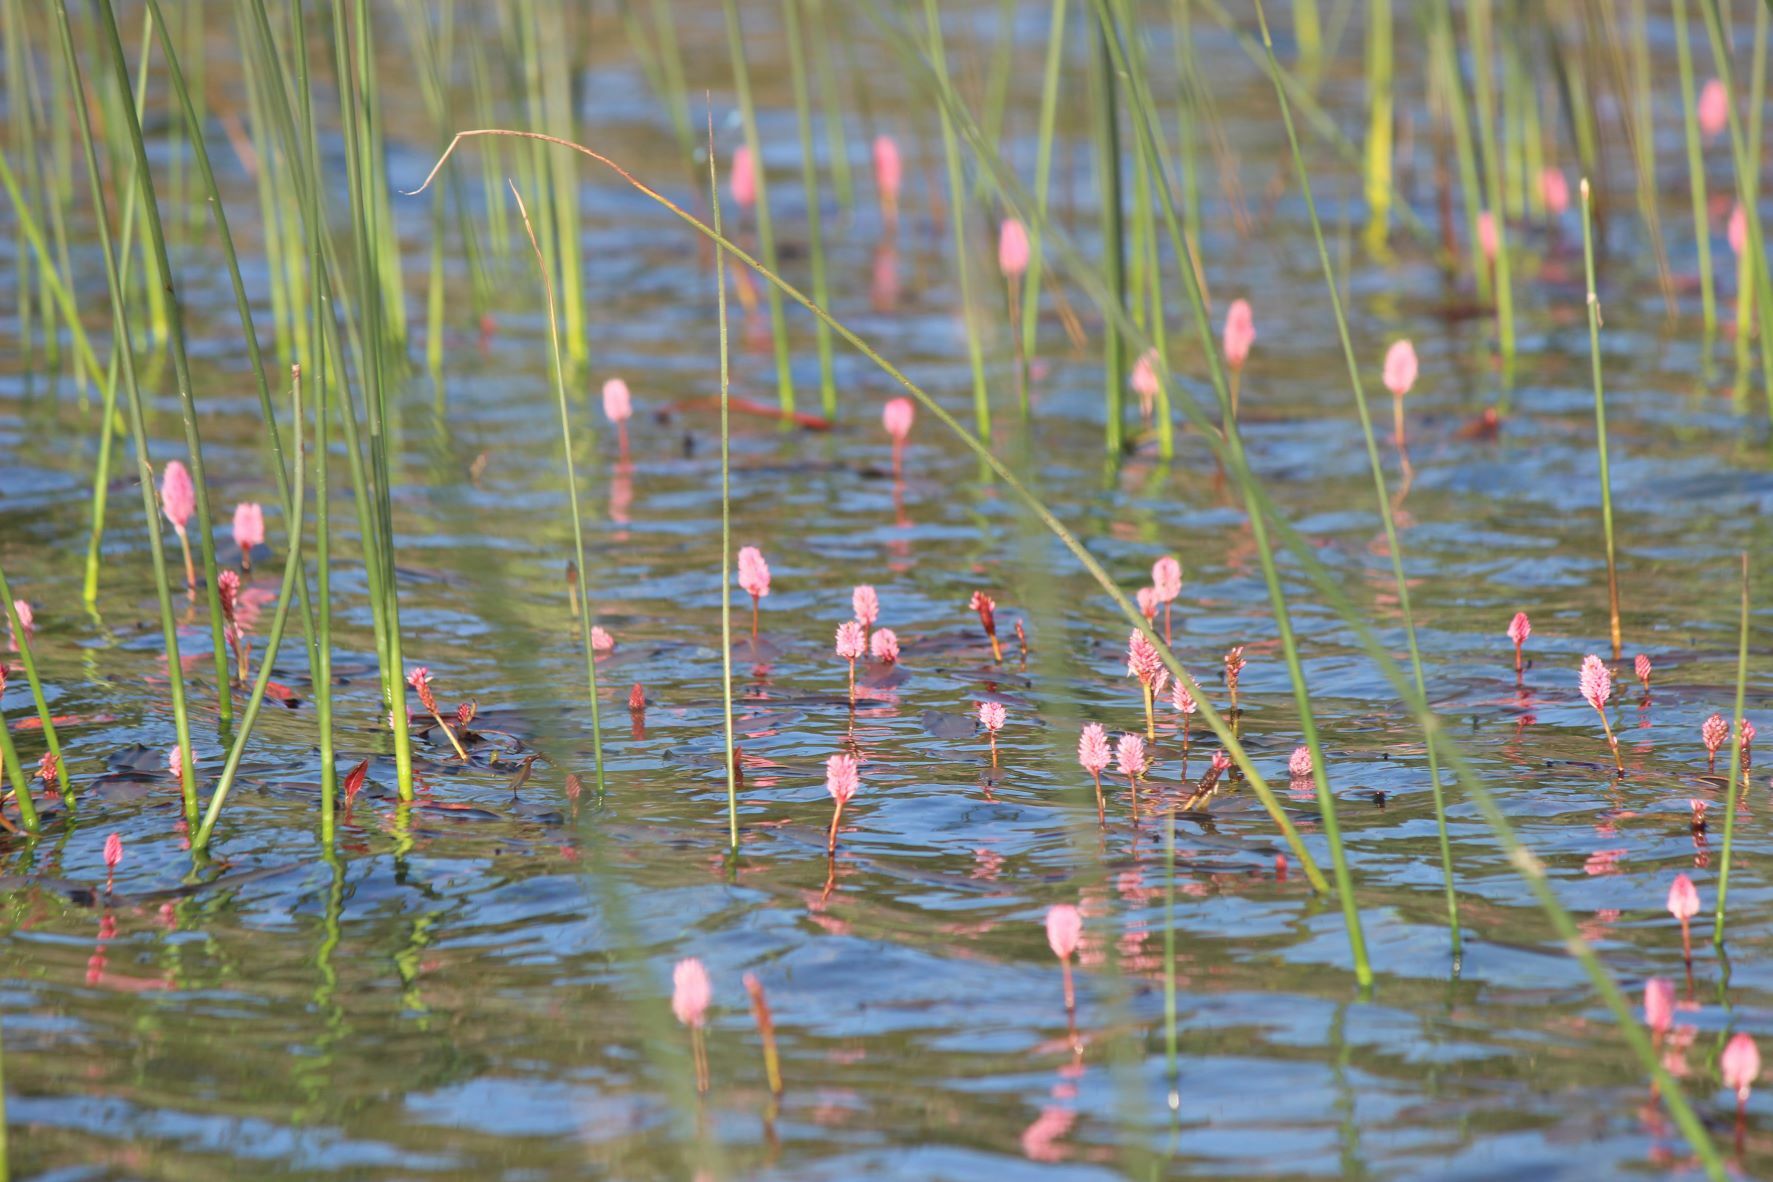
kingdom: Plantae
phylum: Tracheophyta
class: Magnoliopsida
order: Caryophyllales
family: Polygonaceae
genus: Persicaria
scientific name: Persicaria amphibia
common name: Amphibious bistort
